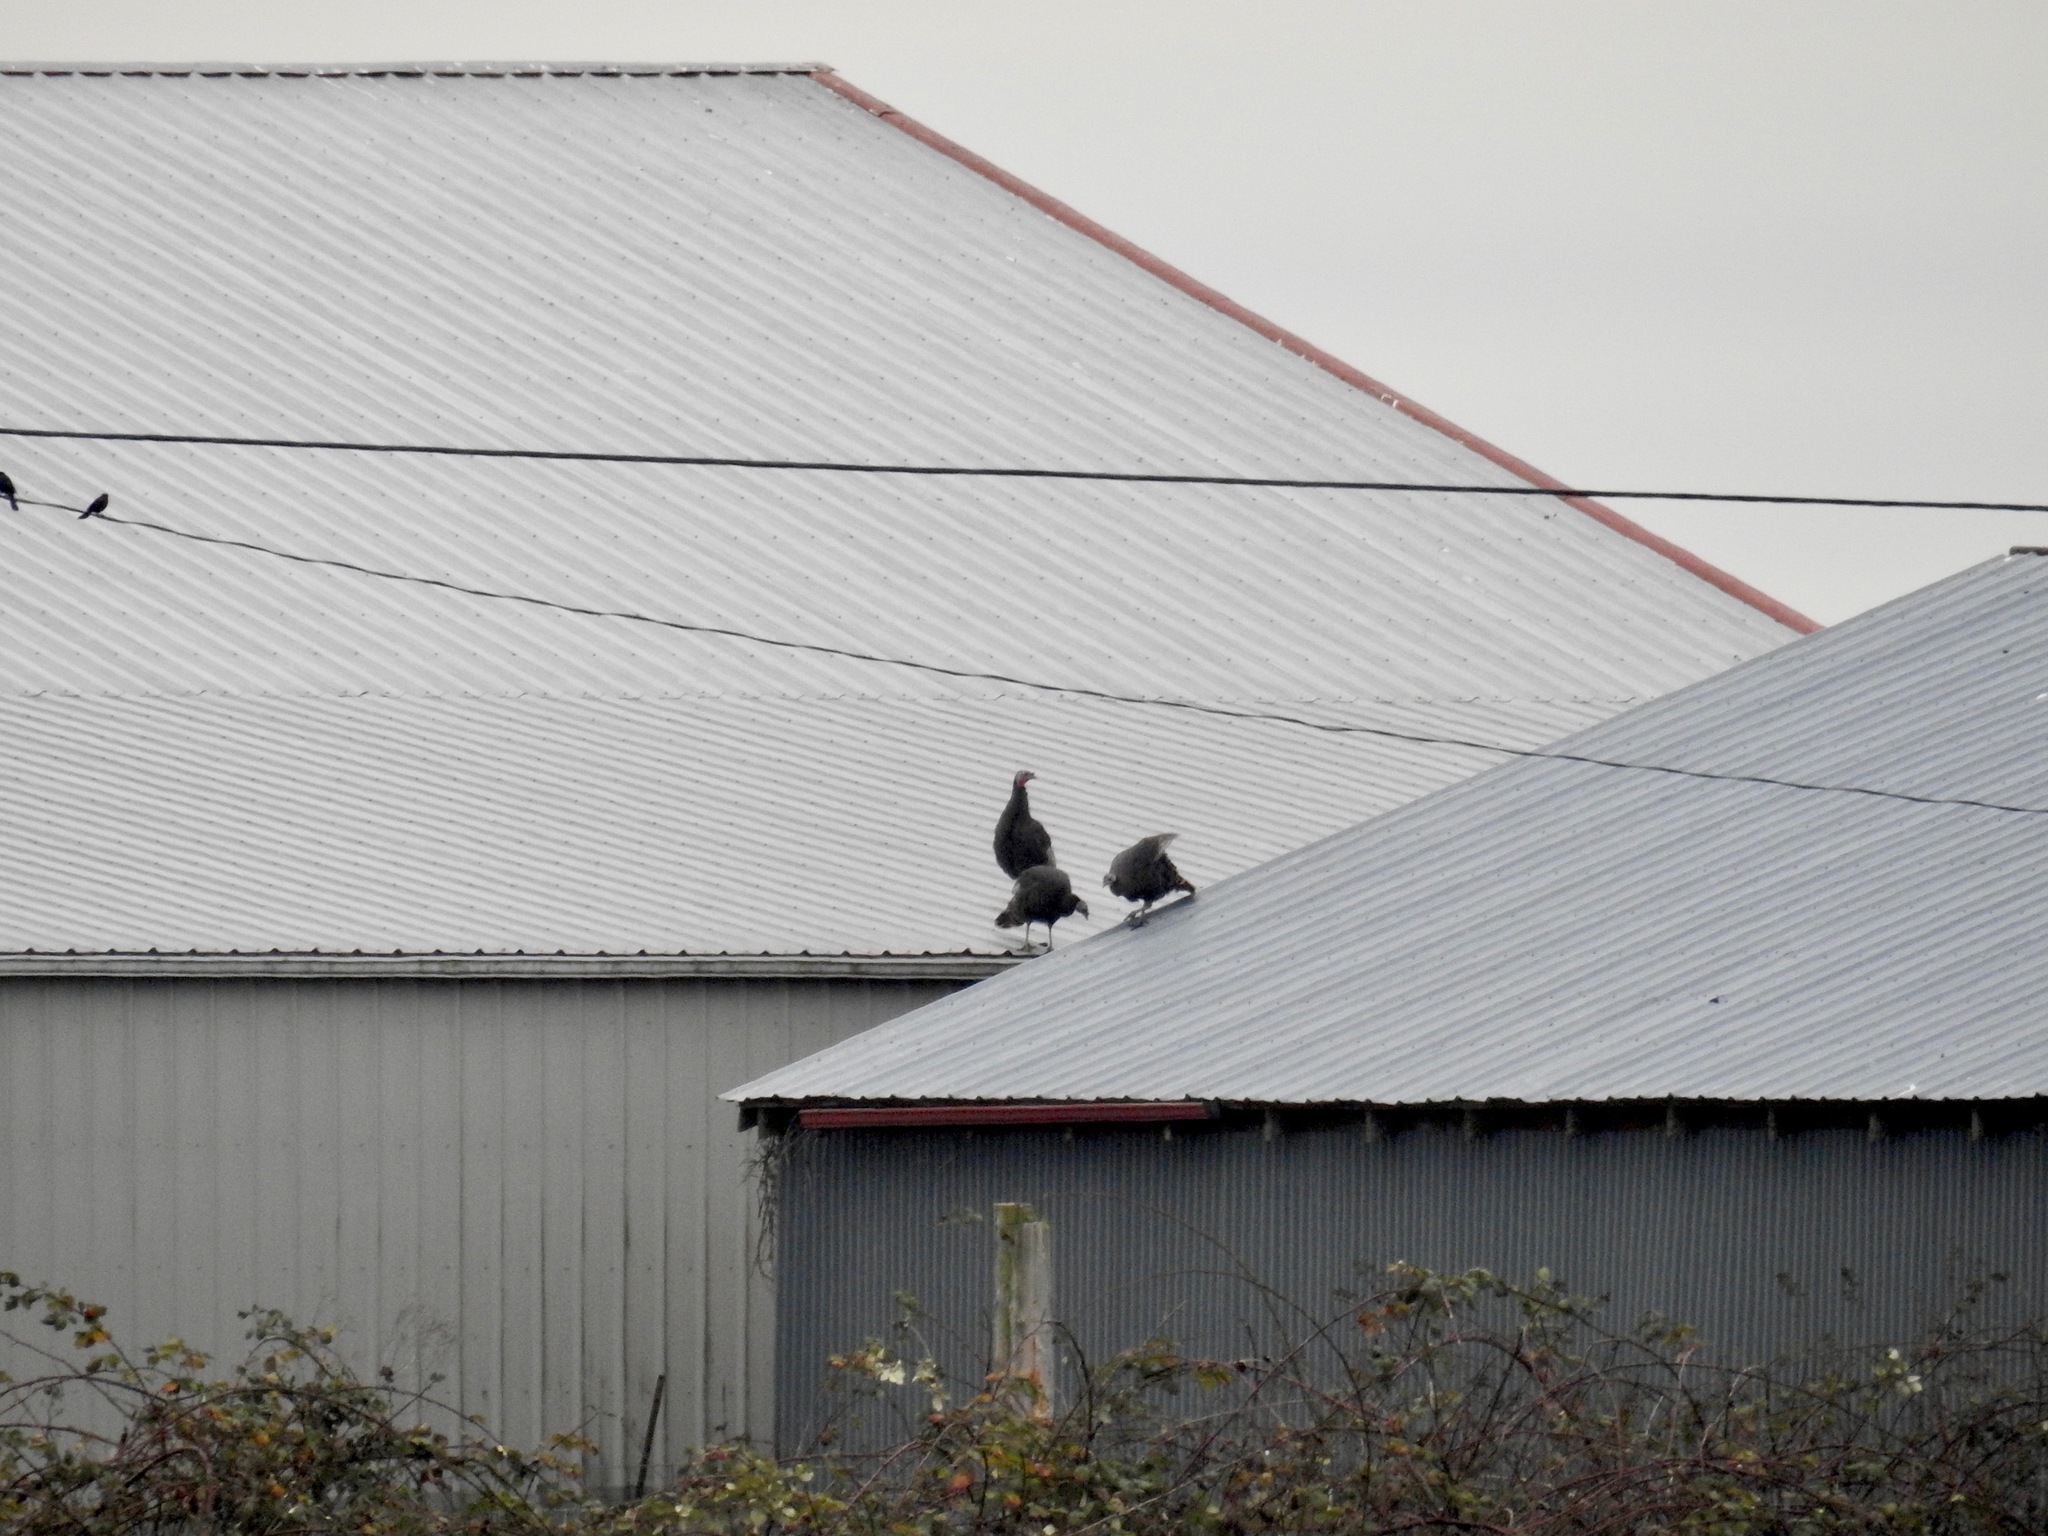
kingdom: Animalia
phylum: Chordata
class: Aves
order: Galliformes
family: Phasianidae
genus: Meleagris
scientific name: Meleagris gallopavo
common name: Wild turkey
